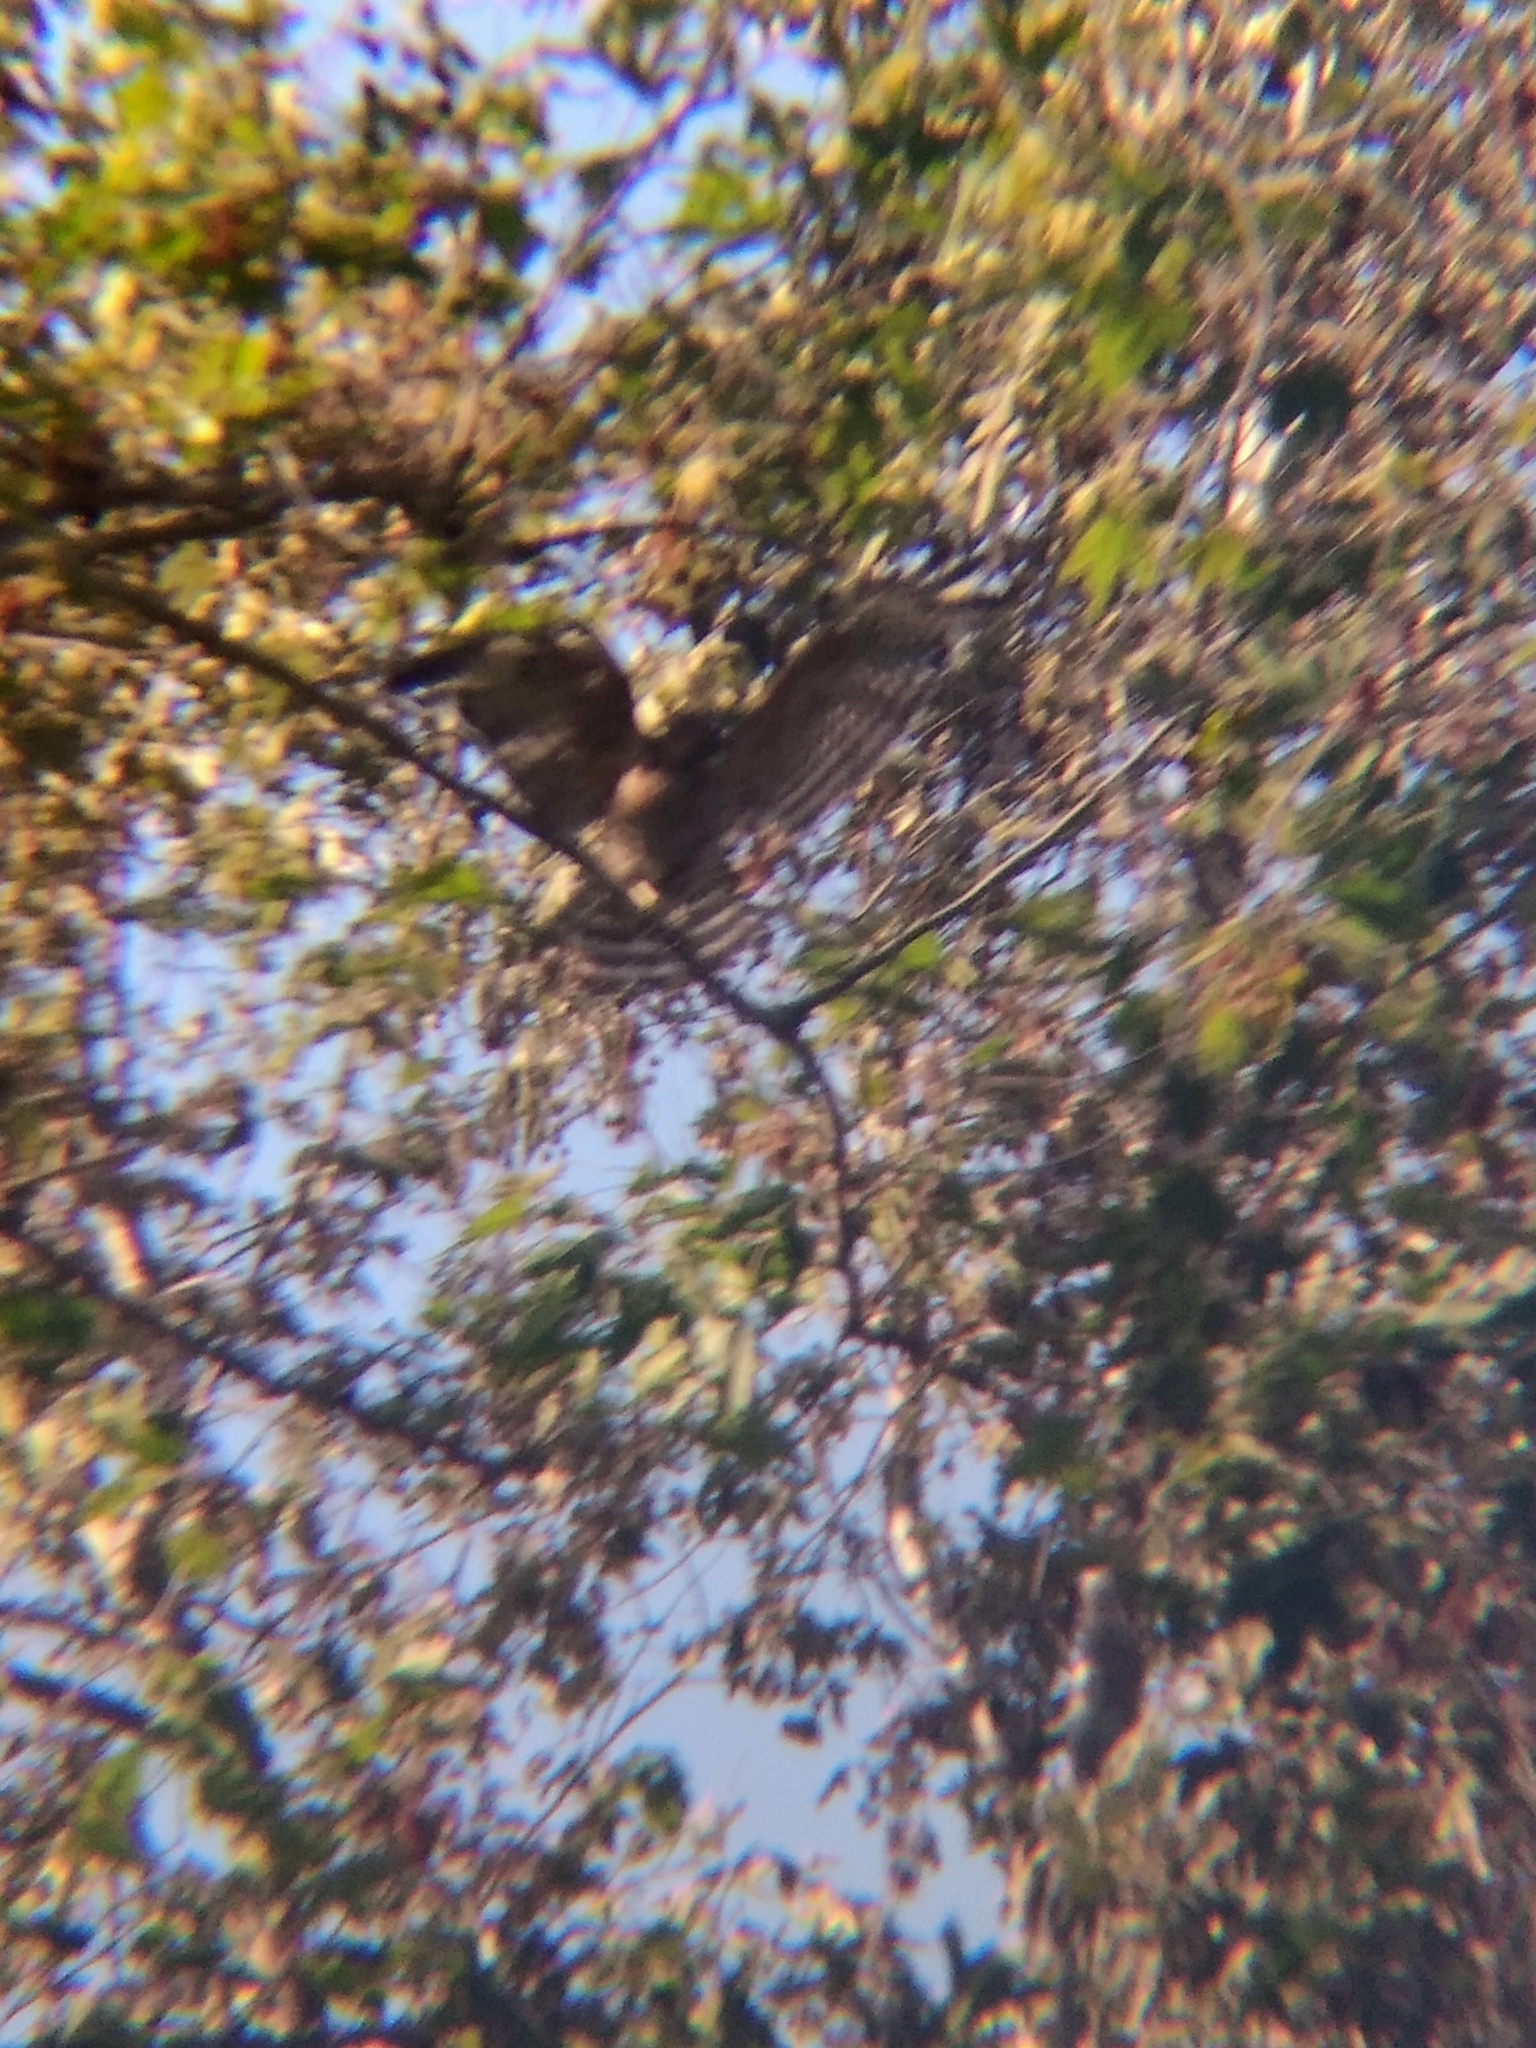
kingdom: Animalia
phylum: Chordata
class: Aves
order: Accipitriformes
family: Accipitridae
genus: Buteo
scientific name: Buteo lineatus
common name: Red-shouldered hawk
